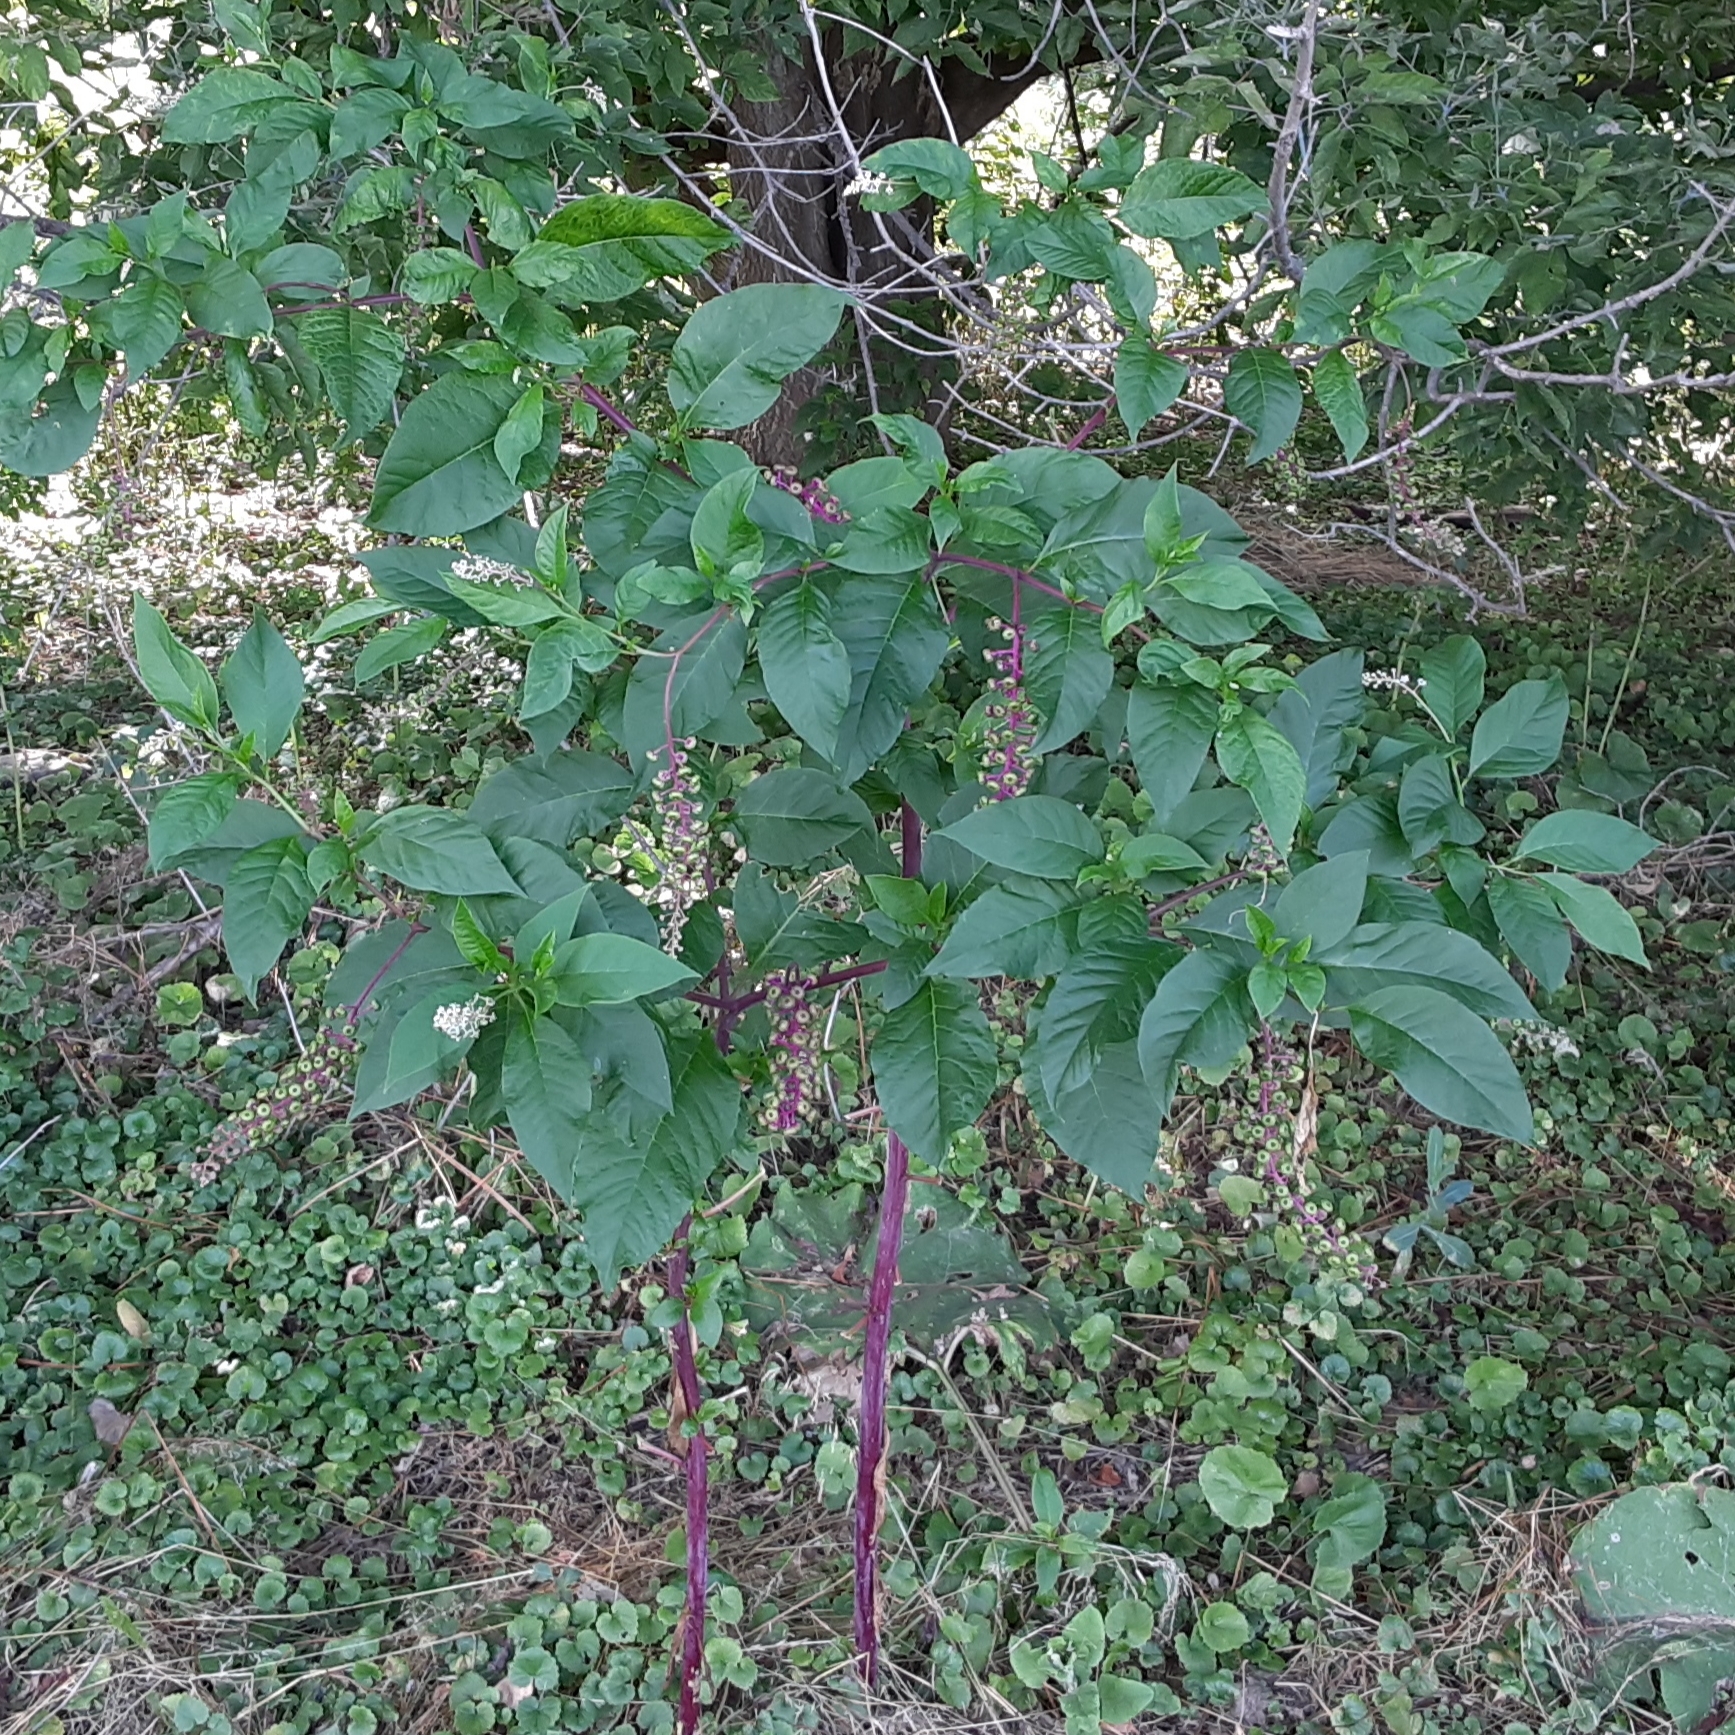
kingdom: Plantae
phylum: Tracheophyta
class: Magnoliopsida
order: Caryophyllales
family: Phytolaccaceae
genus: Phytolacca
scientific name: Phytolacca americana
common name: American pokeweed
